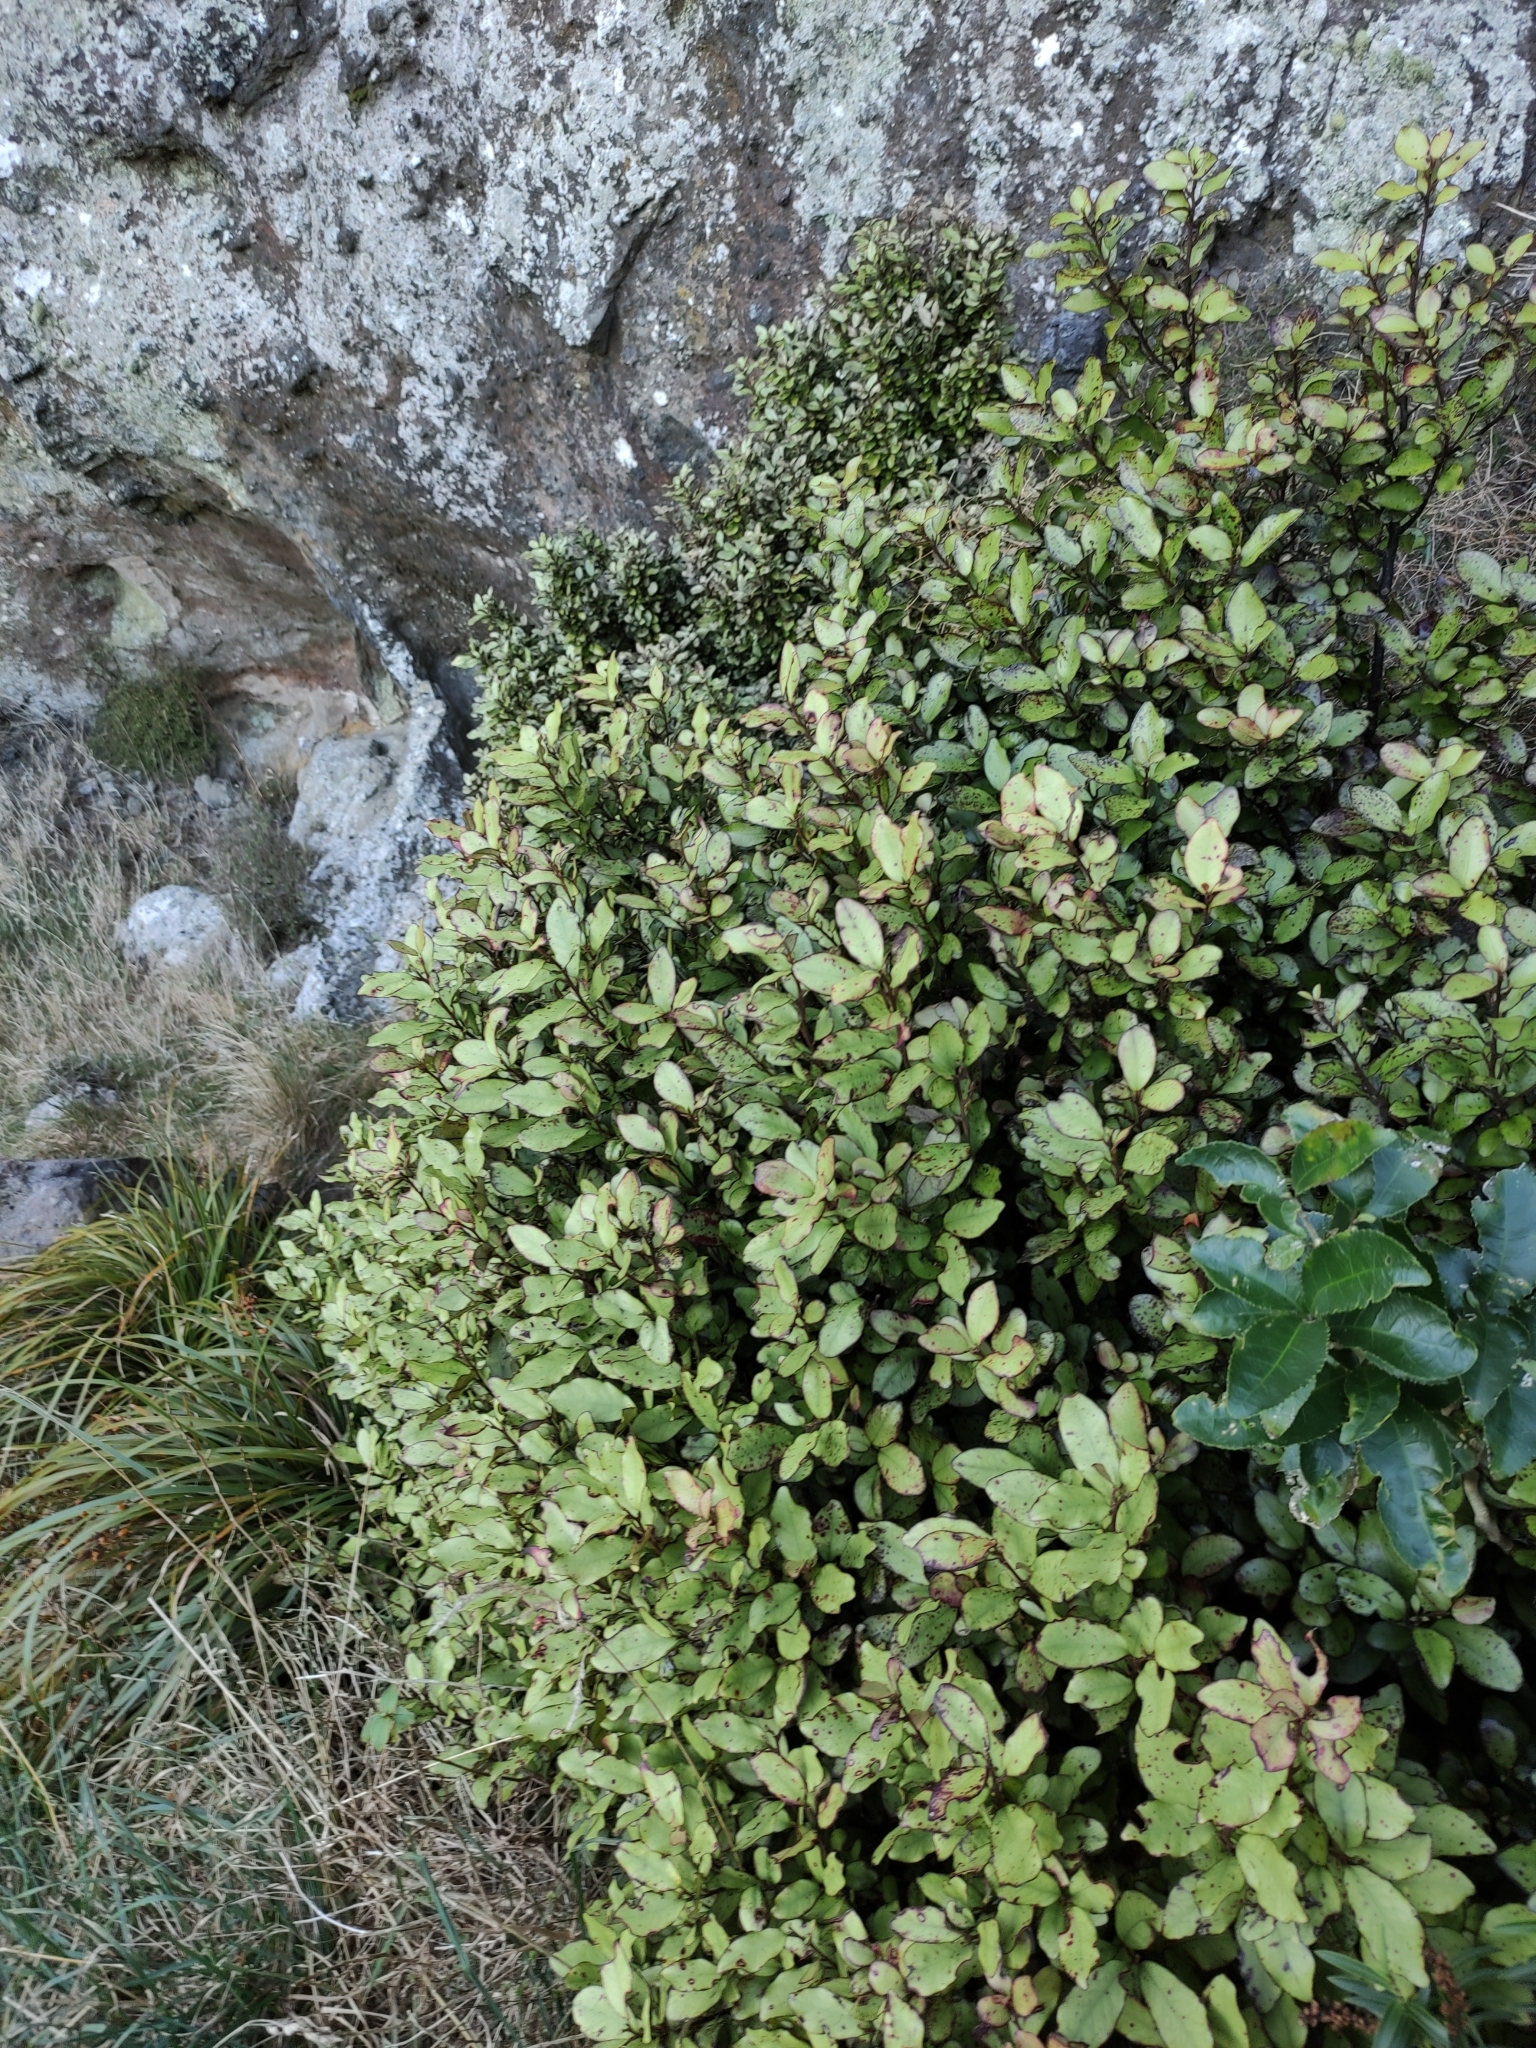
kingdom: Plantae
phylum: Tracheophyta
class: Magnoliopsida
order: Canellales
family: Winteraceae
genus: Pseudowintera
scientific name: Pseudowintera colorata
